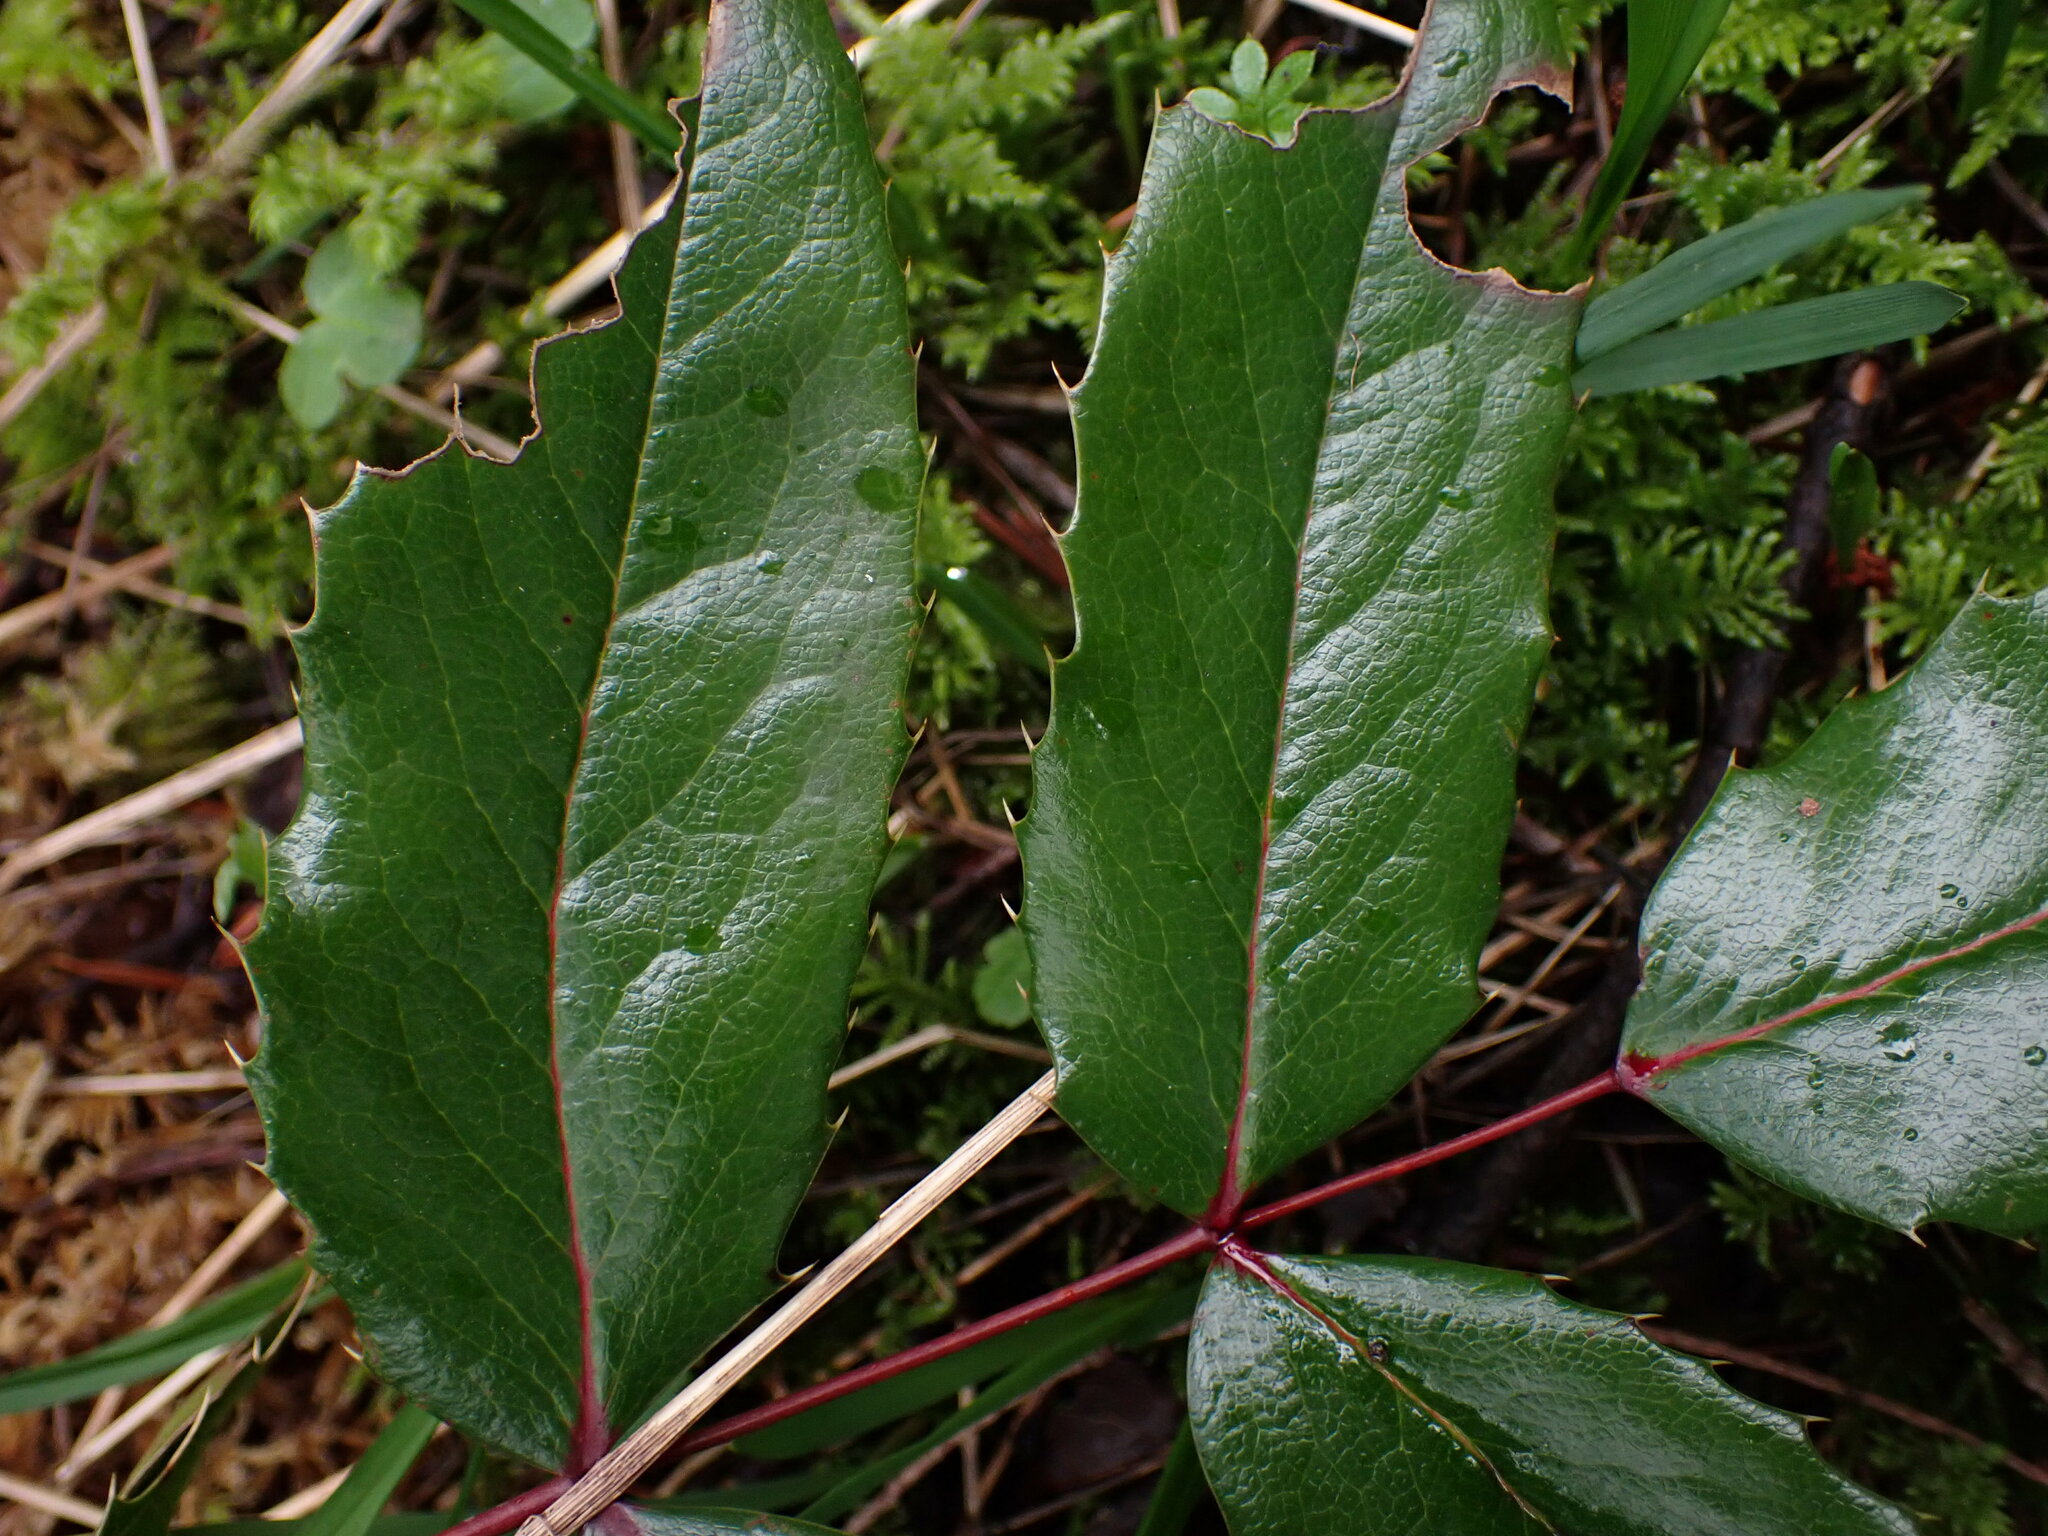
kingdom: Plantae
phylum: Tracheophyta
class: Magnoliopsida
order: Ranunculales
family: Berberidaceae
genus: Mahonia
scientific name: Mahonia aquifolium
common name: Oregon-grape
